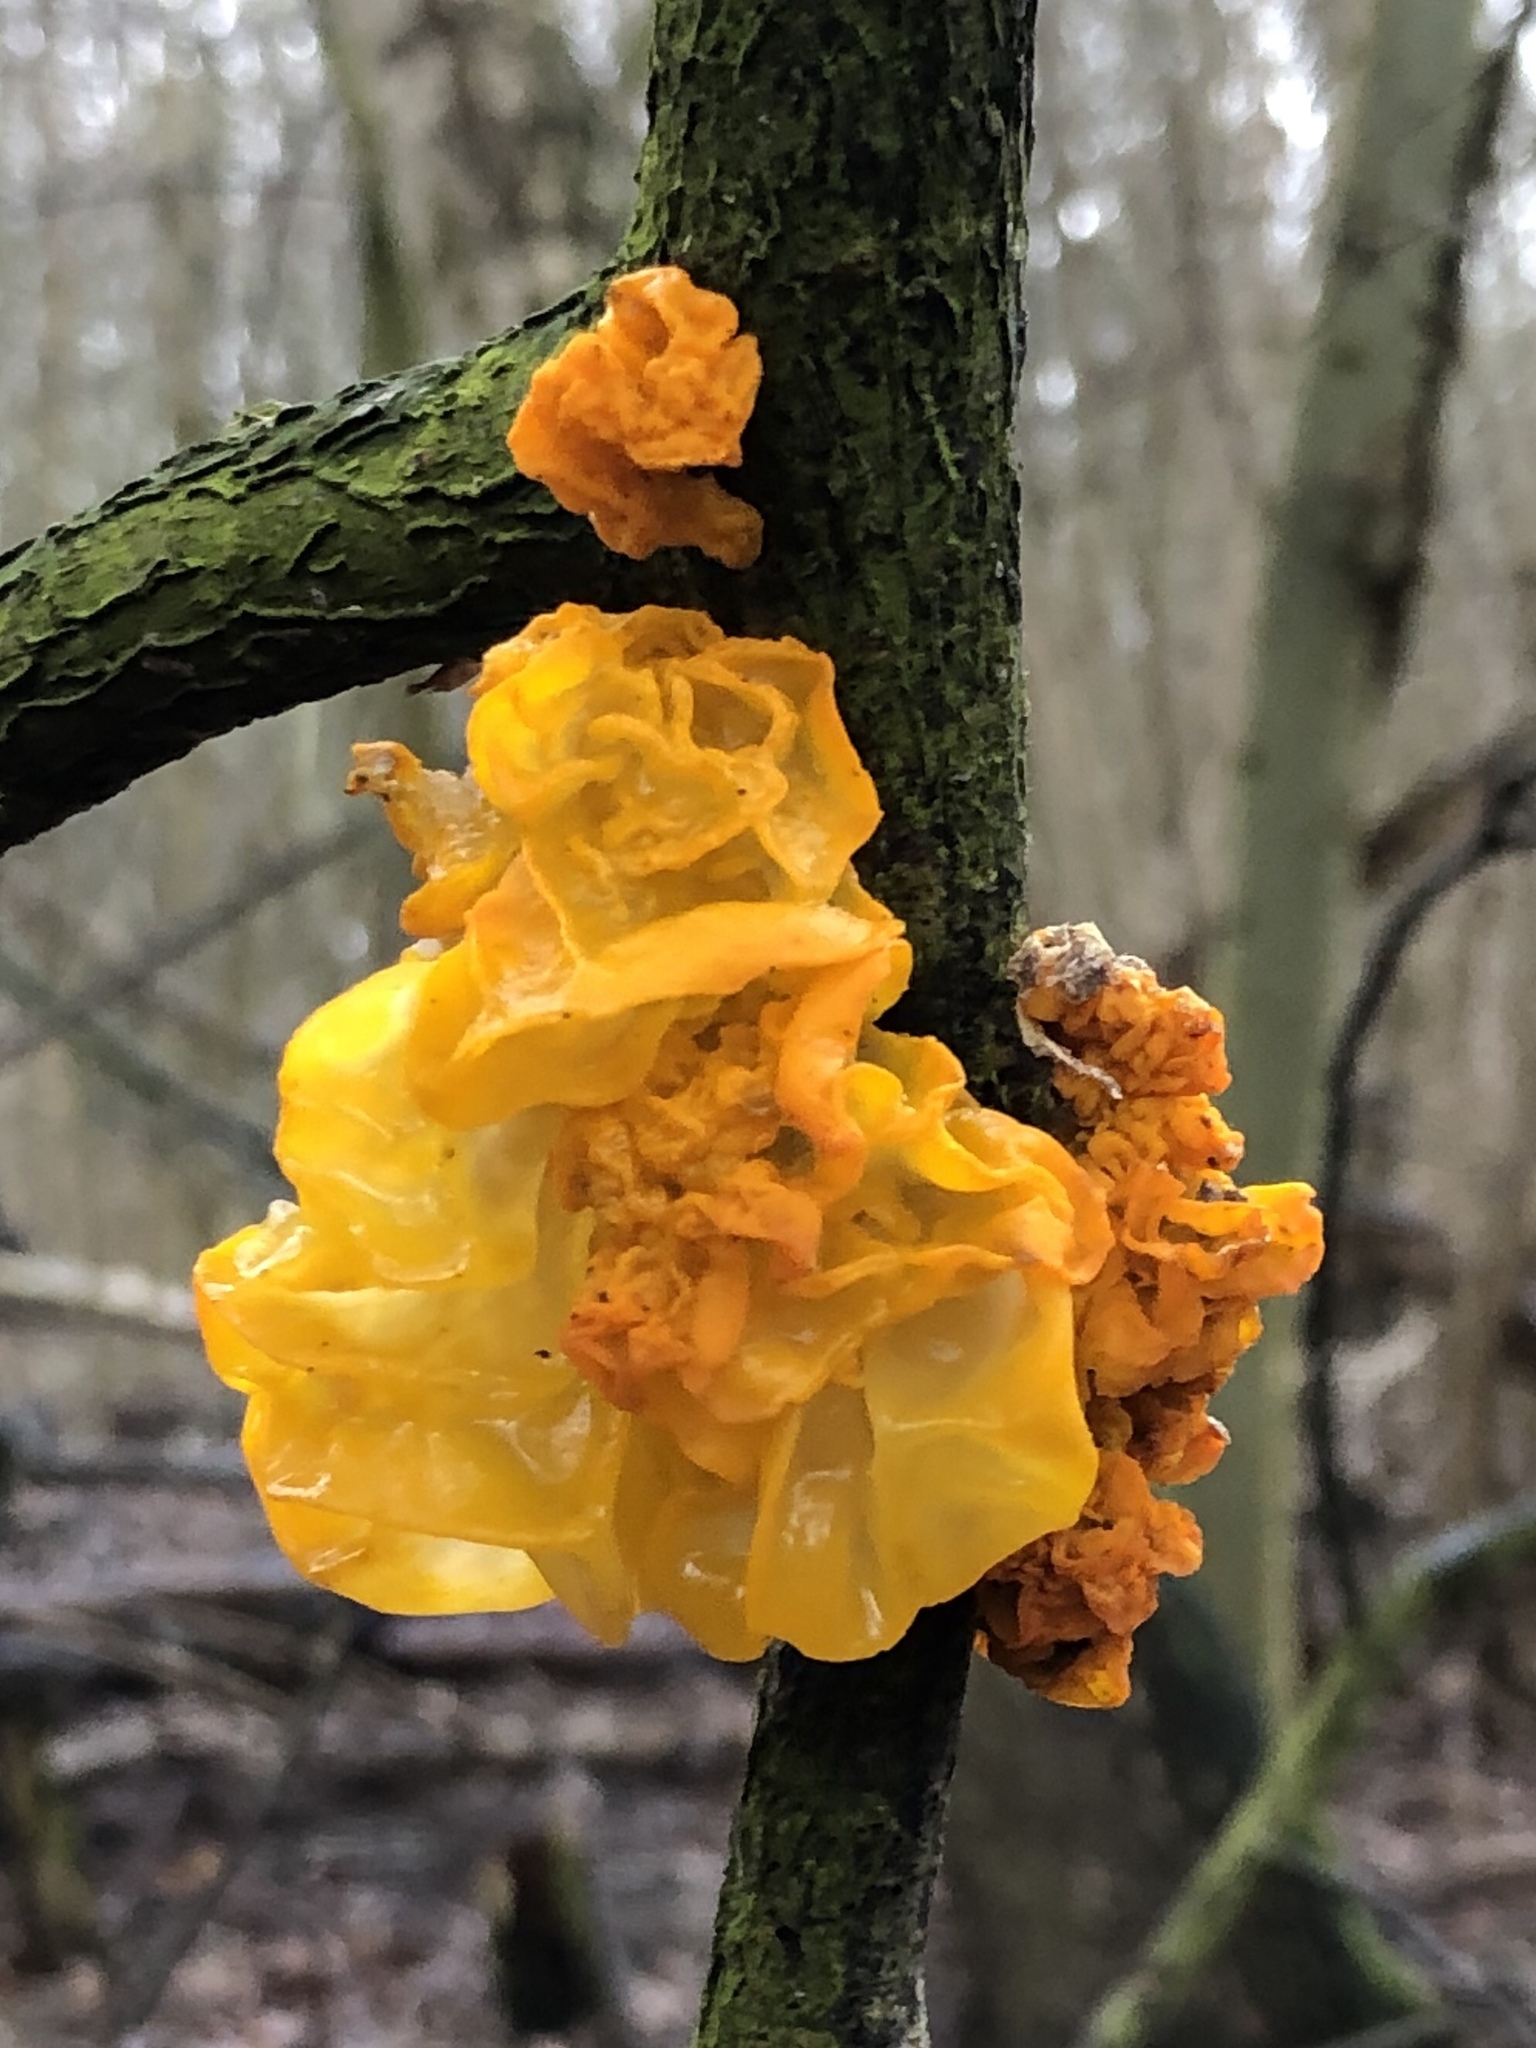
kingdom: Fungi
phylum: Basidiomycota
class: Tremellomycetes
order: Tremellales
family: Tremellaceae
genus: Tremella
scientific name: Tremella mesenterica
